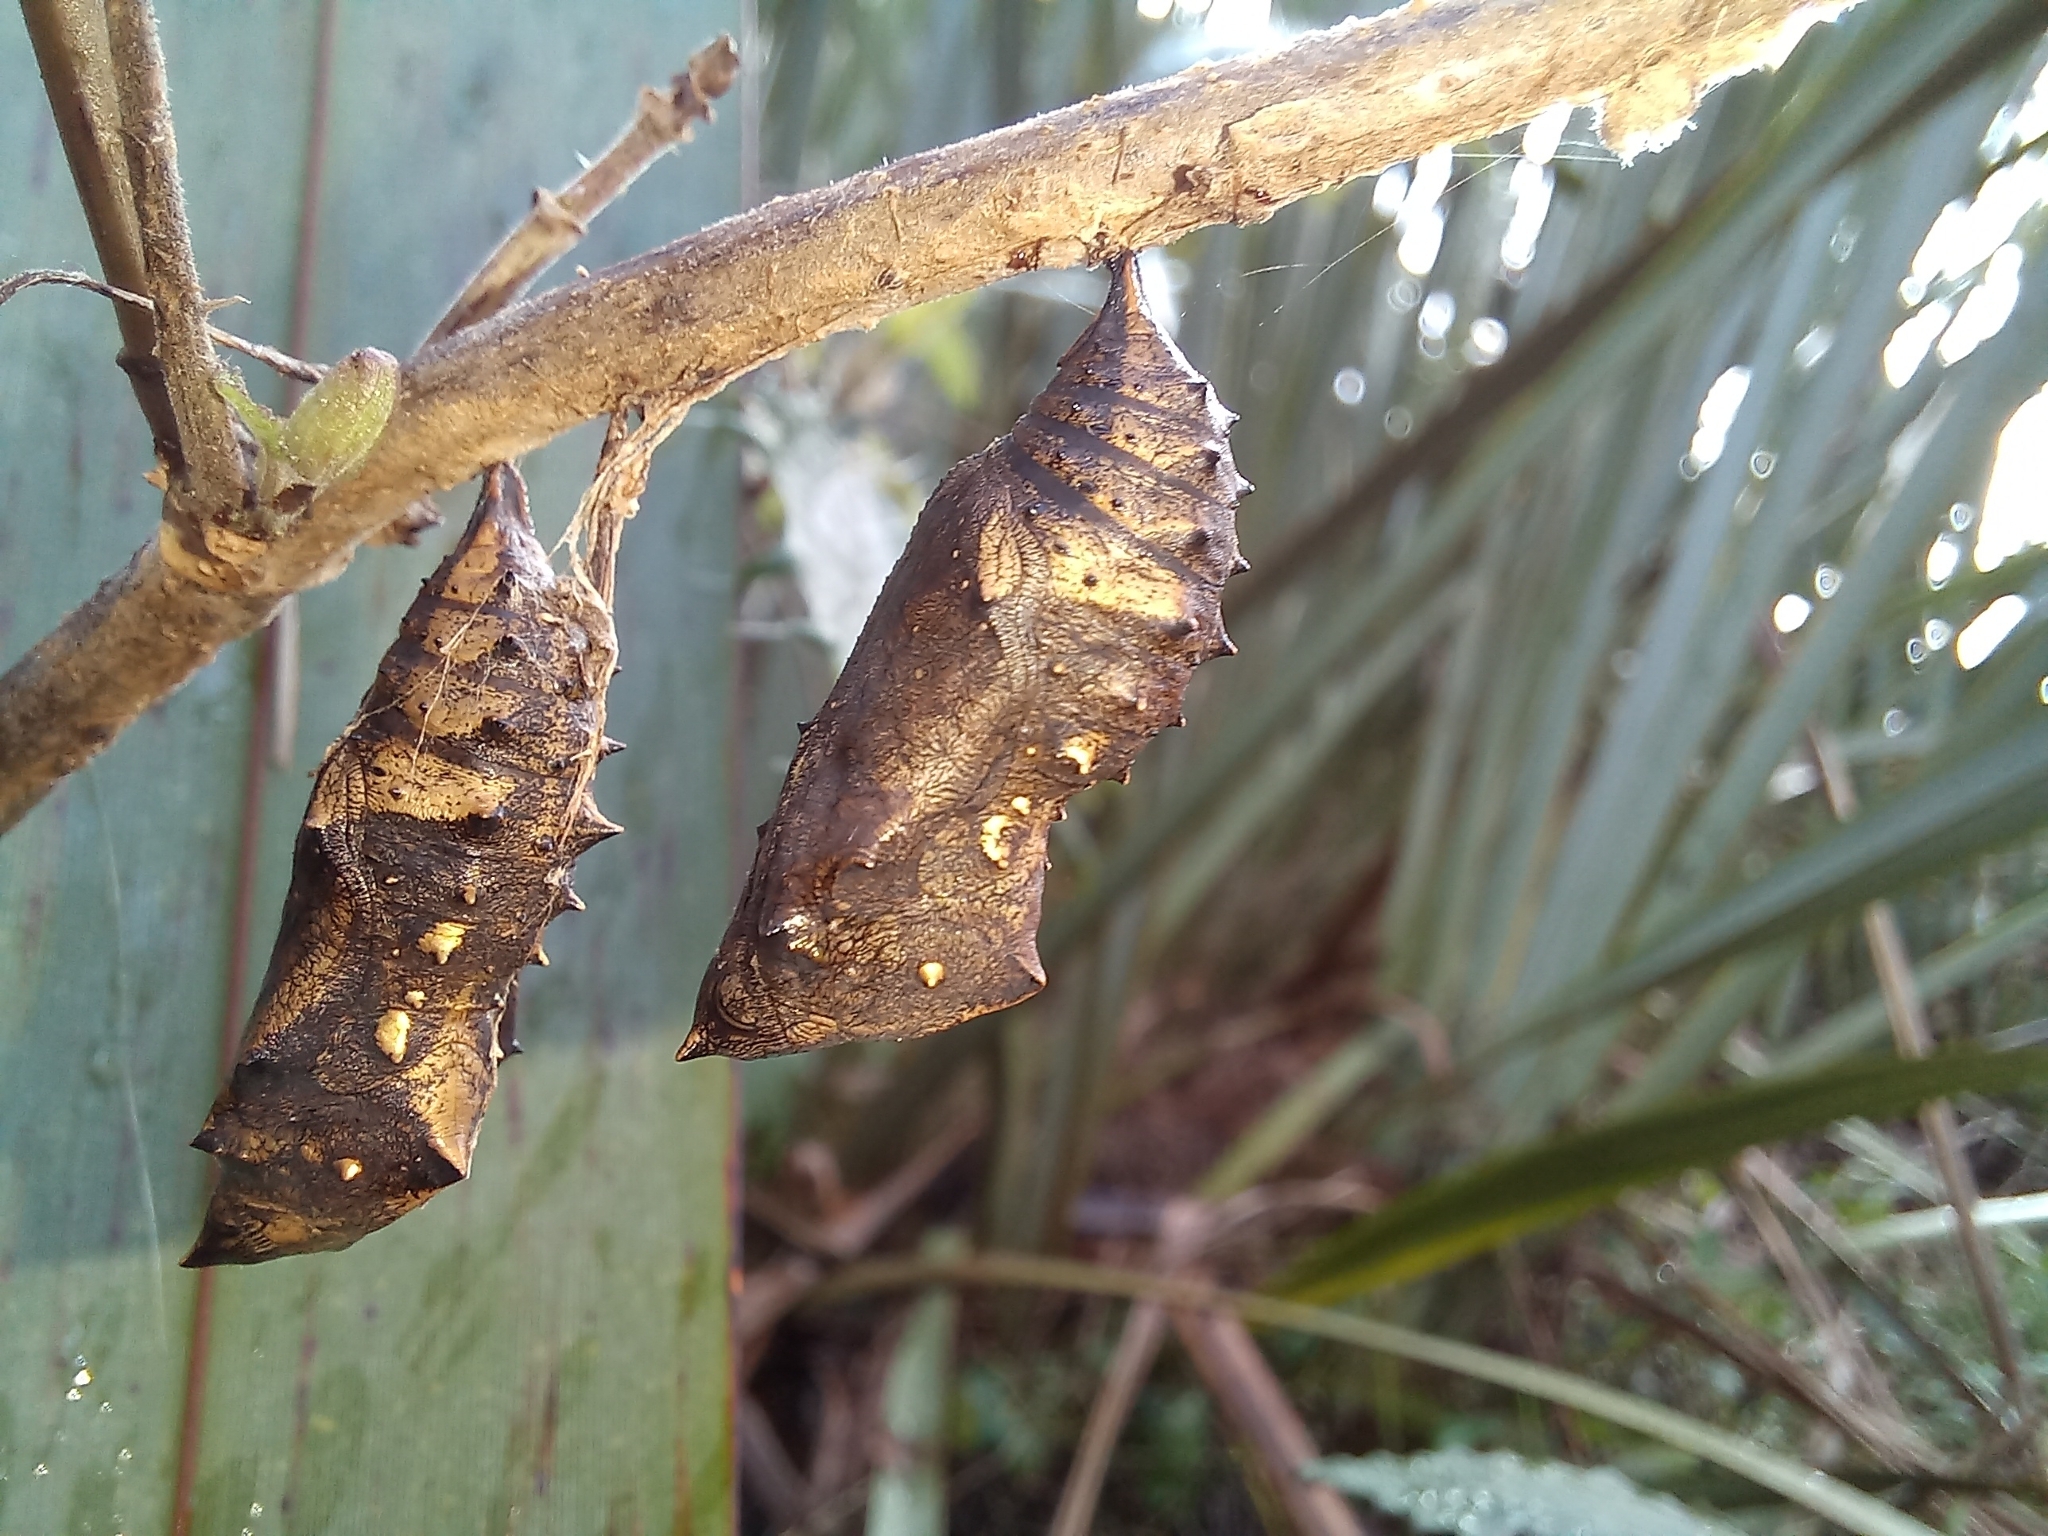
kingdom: Animalia
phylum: Arthropoda
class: Insecta
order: Lepidoptera
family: Nymphalidae
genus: Vanessa
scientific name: Vanessa gonerilla
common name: New zealand red admiral
